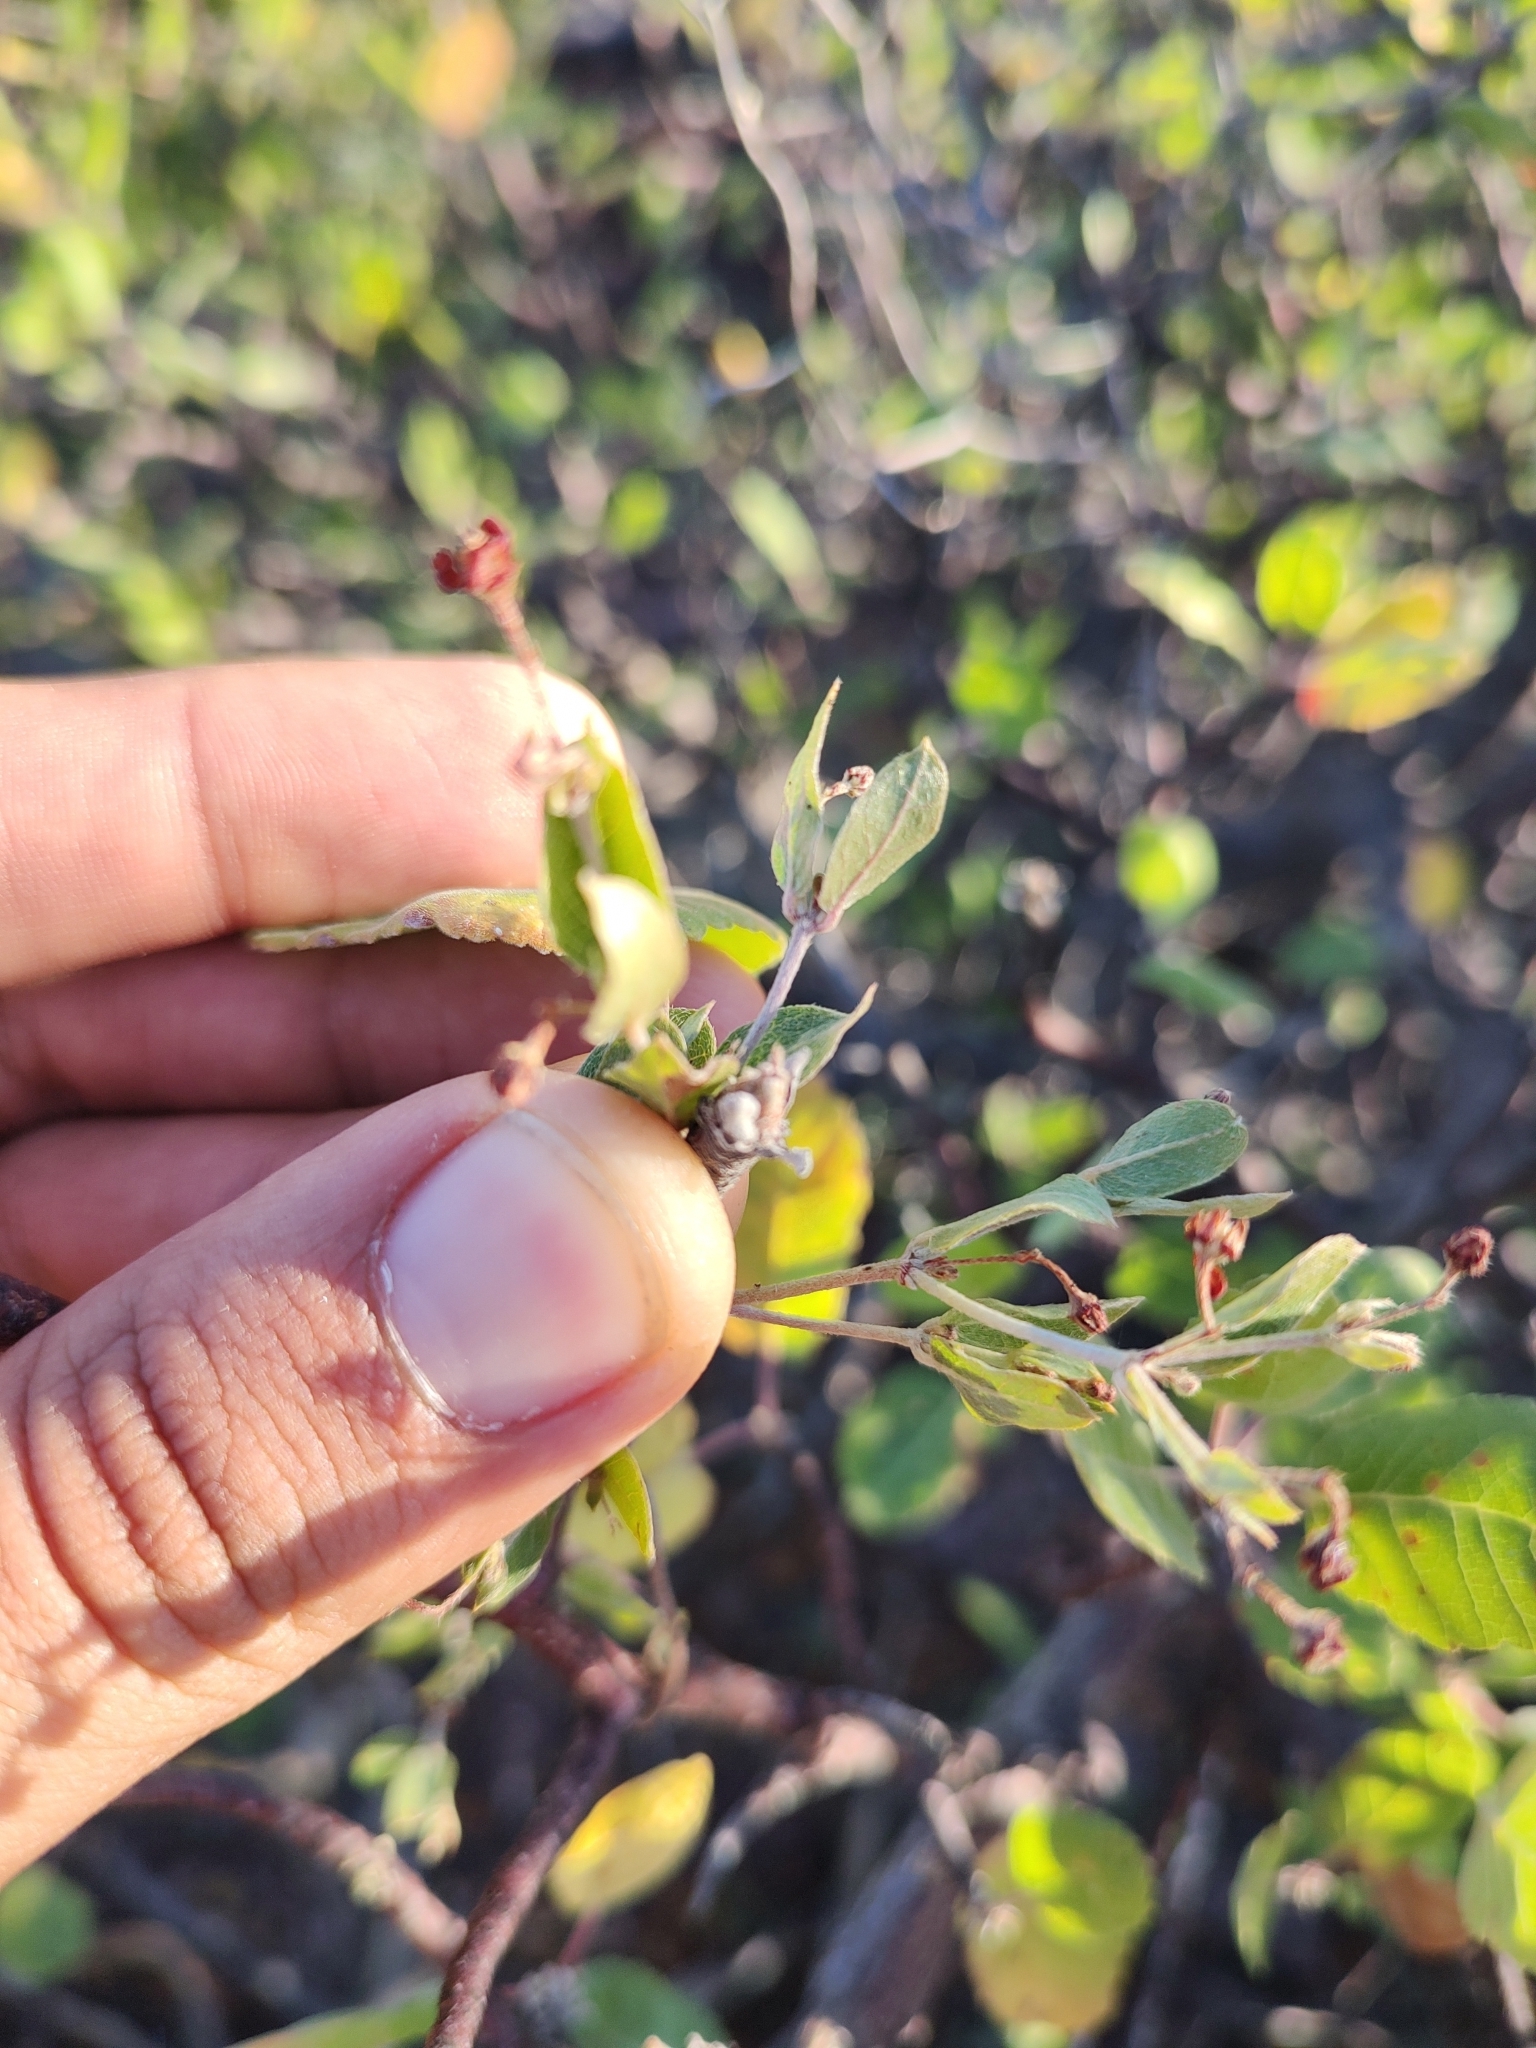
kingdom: Plantae
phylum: Tracheophyta
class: Magnoliopsida
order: Malpighiales
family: Malpighiaceae
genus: Cottsia
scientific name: Cottsia californica
